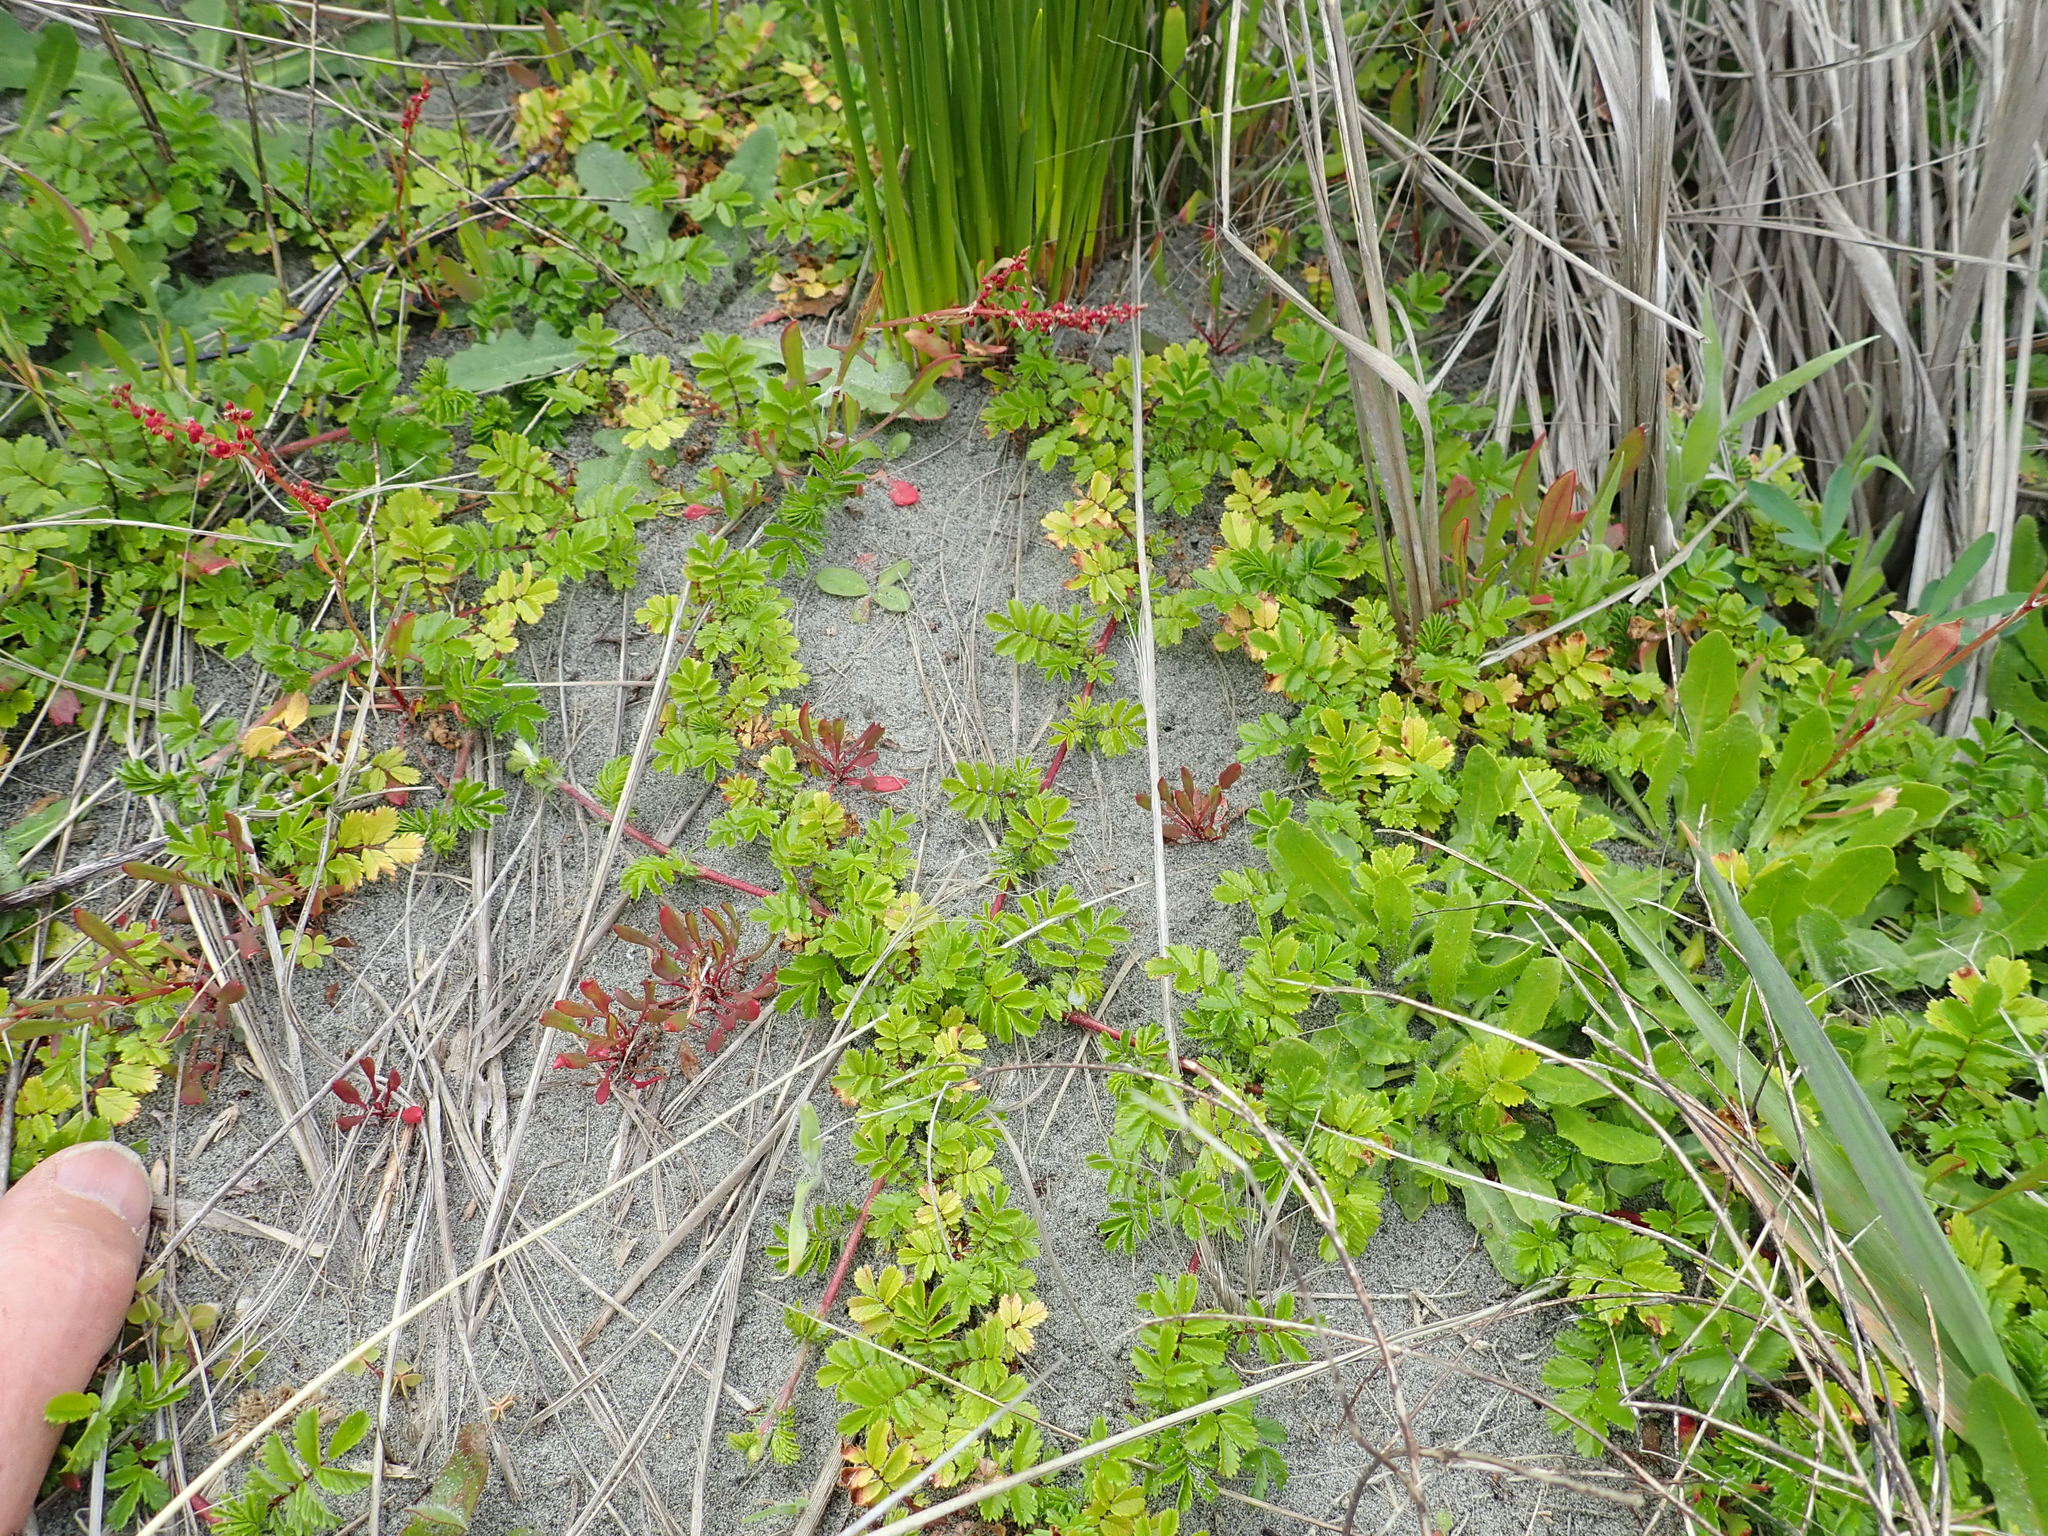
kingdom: Plantae
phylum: Tracheophyta
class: Magnoliopsida
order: Rosales
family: Rosaceae
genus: Acaena
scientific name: Acaena novae-zelandiae
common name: Pirri-pirri-bur
